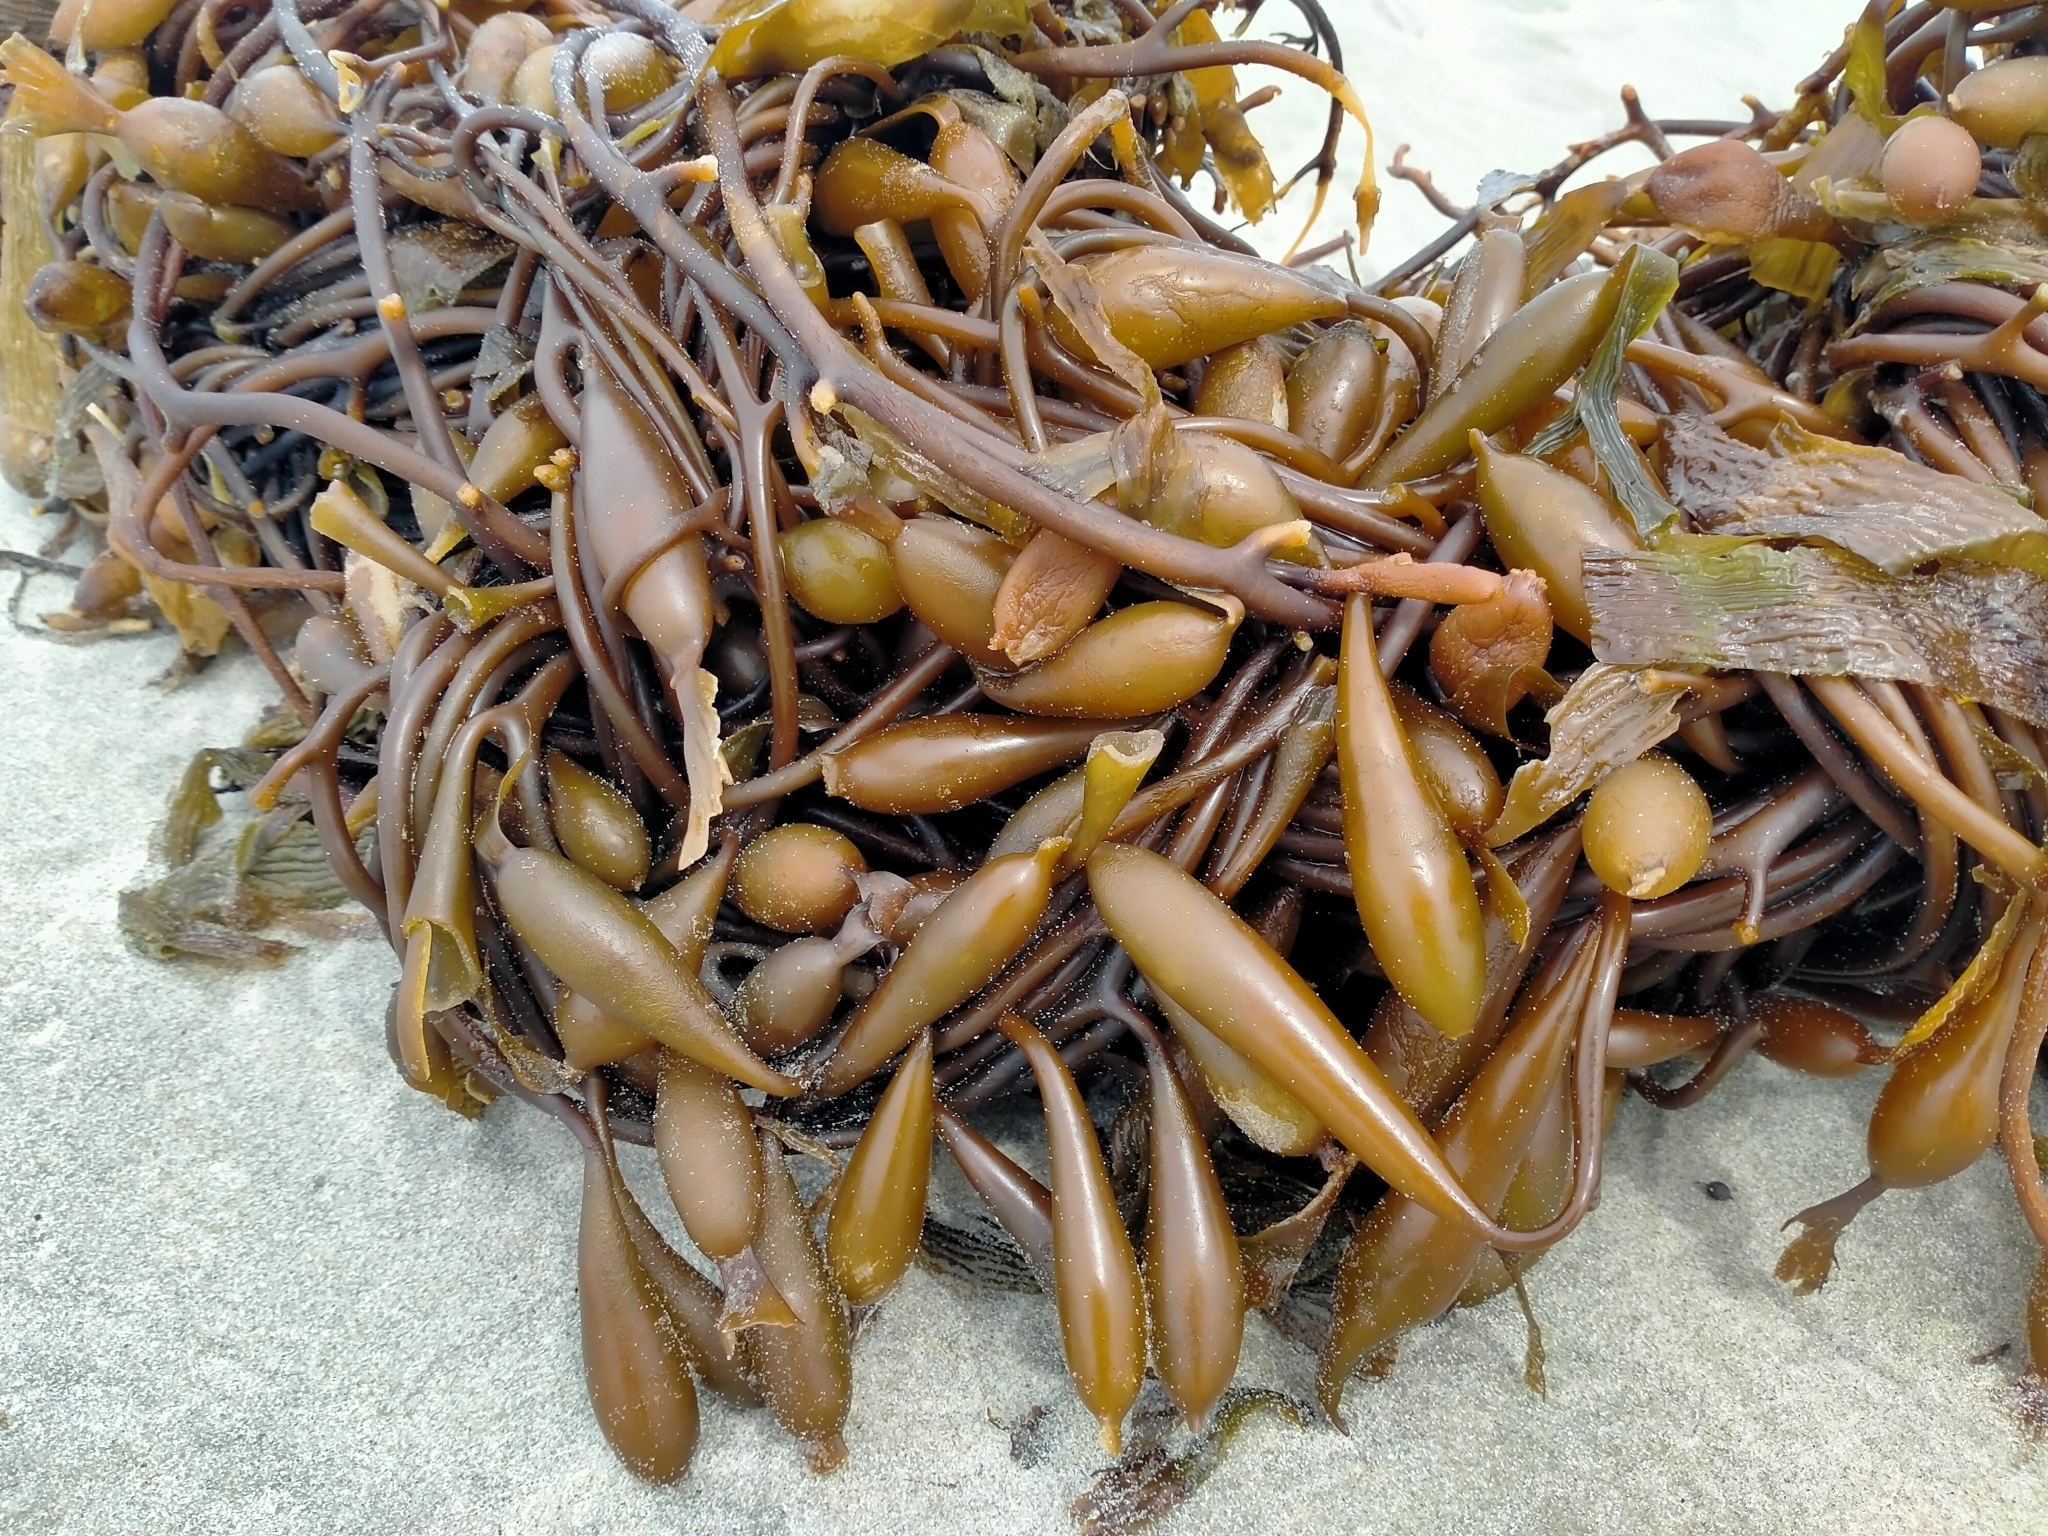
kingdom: Chromista
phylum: Ochrophyta
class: Phaeophyceae
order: Laminariales
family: Laminariaceae
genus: Macrocystis
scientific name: Macrocystis pyrifera
